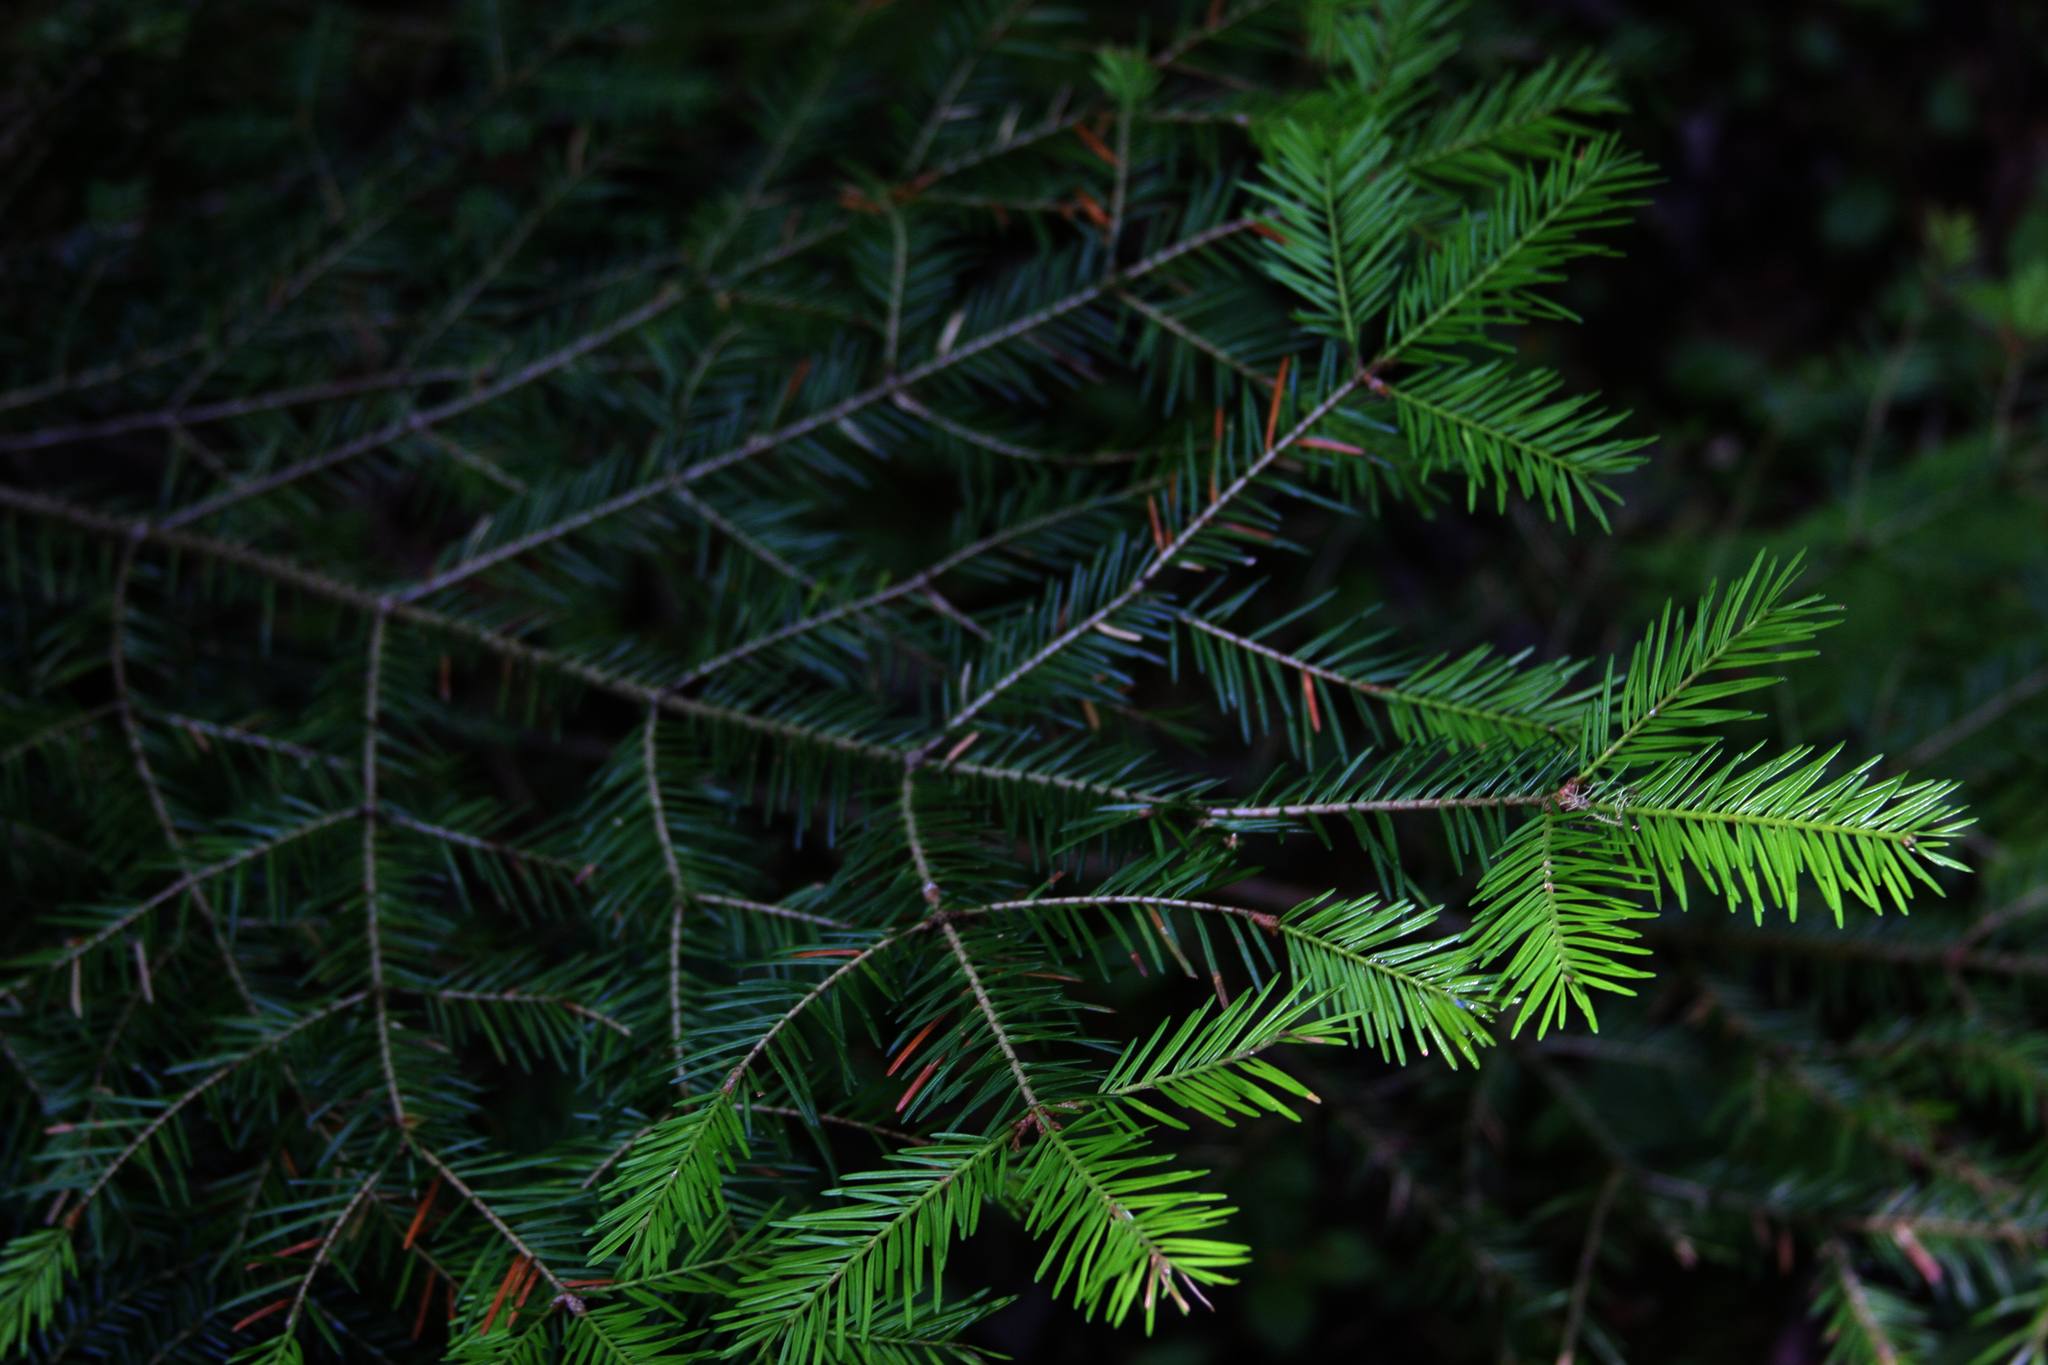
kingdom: Plantae
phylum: Tracheophyta
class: Pinopsida
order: Pinales
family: Pinaceae
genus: Abies
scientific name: Abies balsamea
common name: Balsam fir
